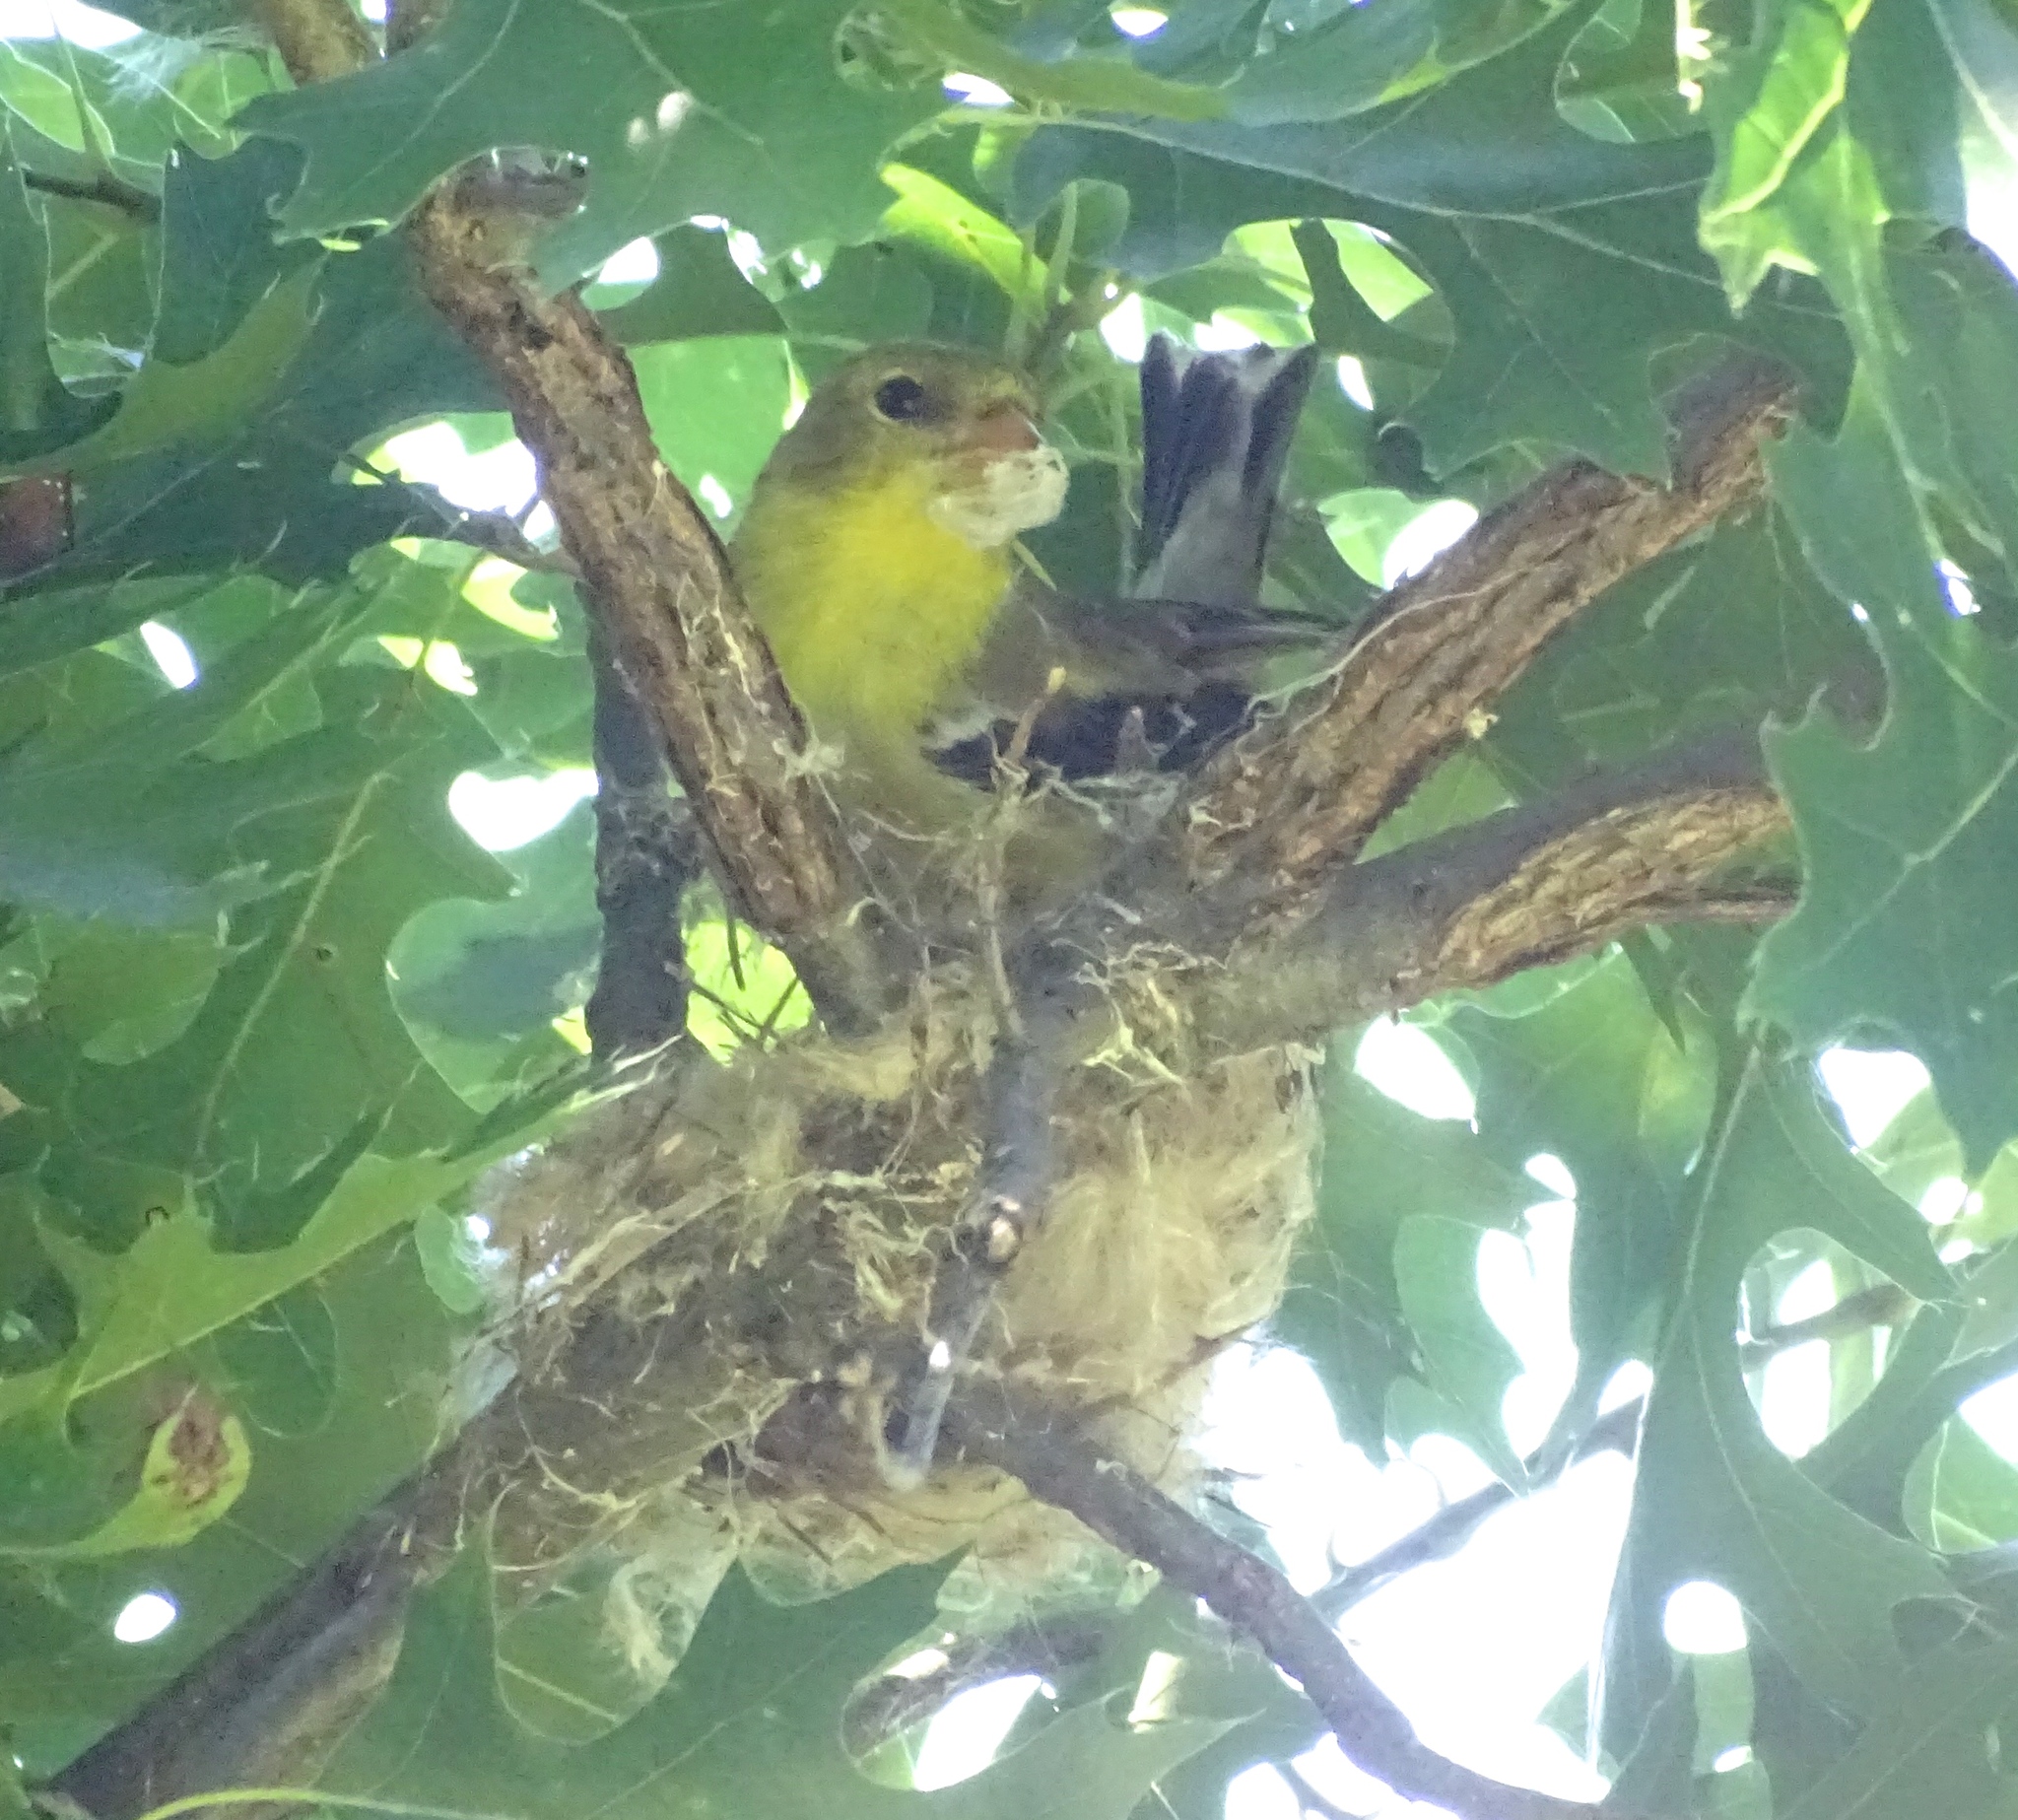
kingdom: Animalia
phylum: Chordata
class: Aves
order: Passeriformes
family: Fringillidae
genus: Spinus
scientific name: Spinus tristis
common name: American goldfinch
